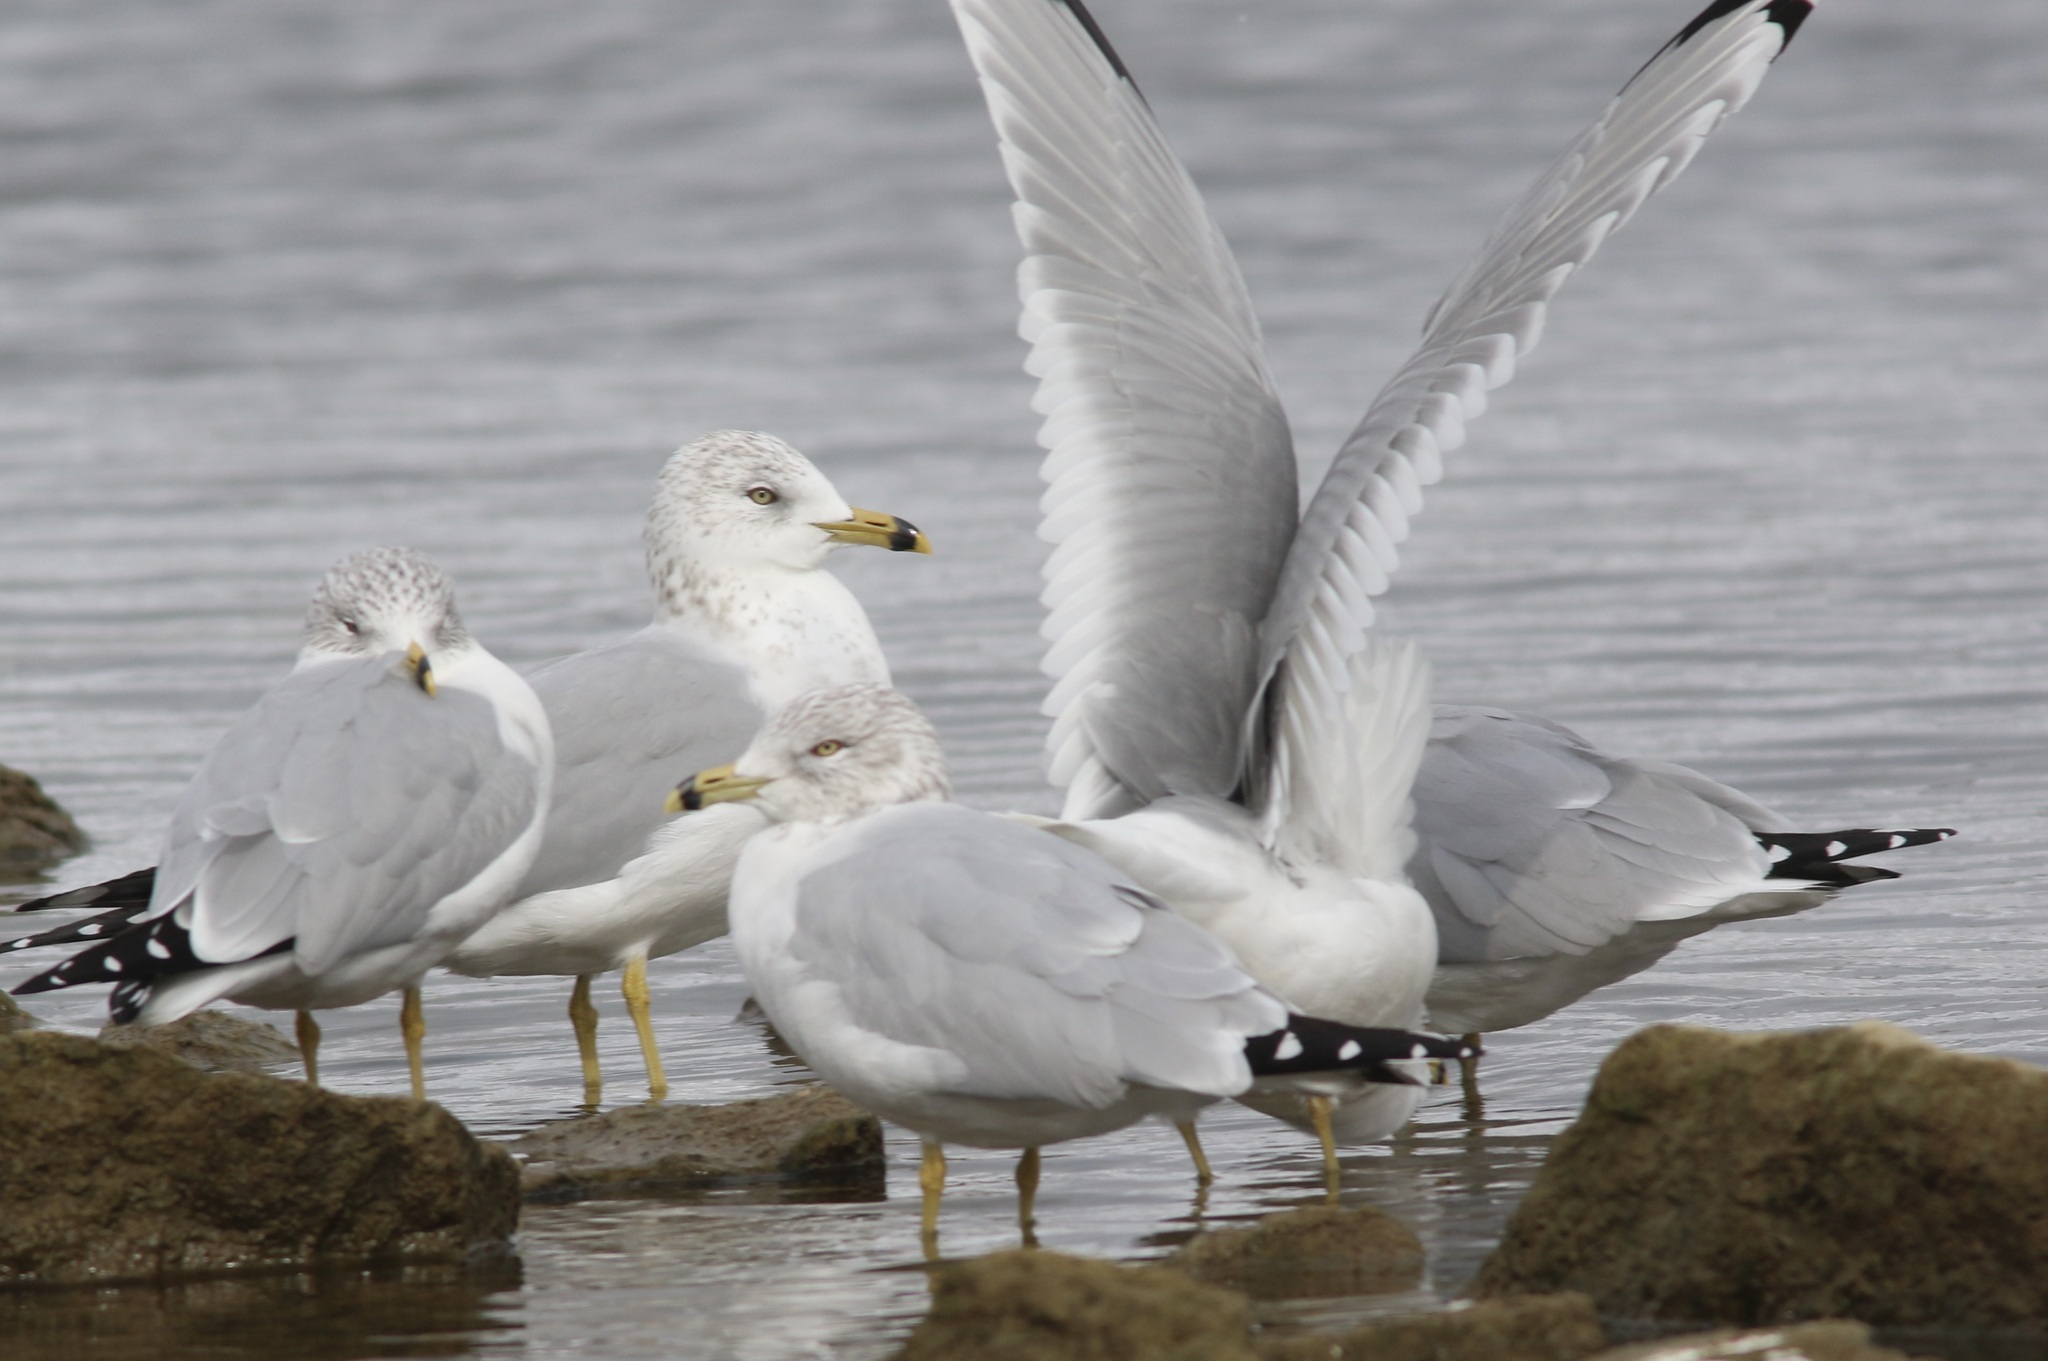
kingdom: Animalia
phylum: Chordata
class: Aves
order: Charadriiformes
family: Laridae
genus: Larus
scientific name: Larus delawarensis
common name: Ring-billed gull
